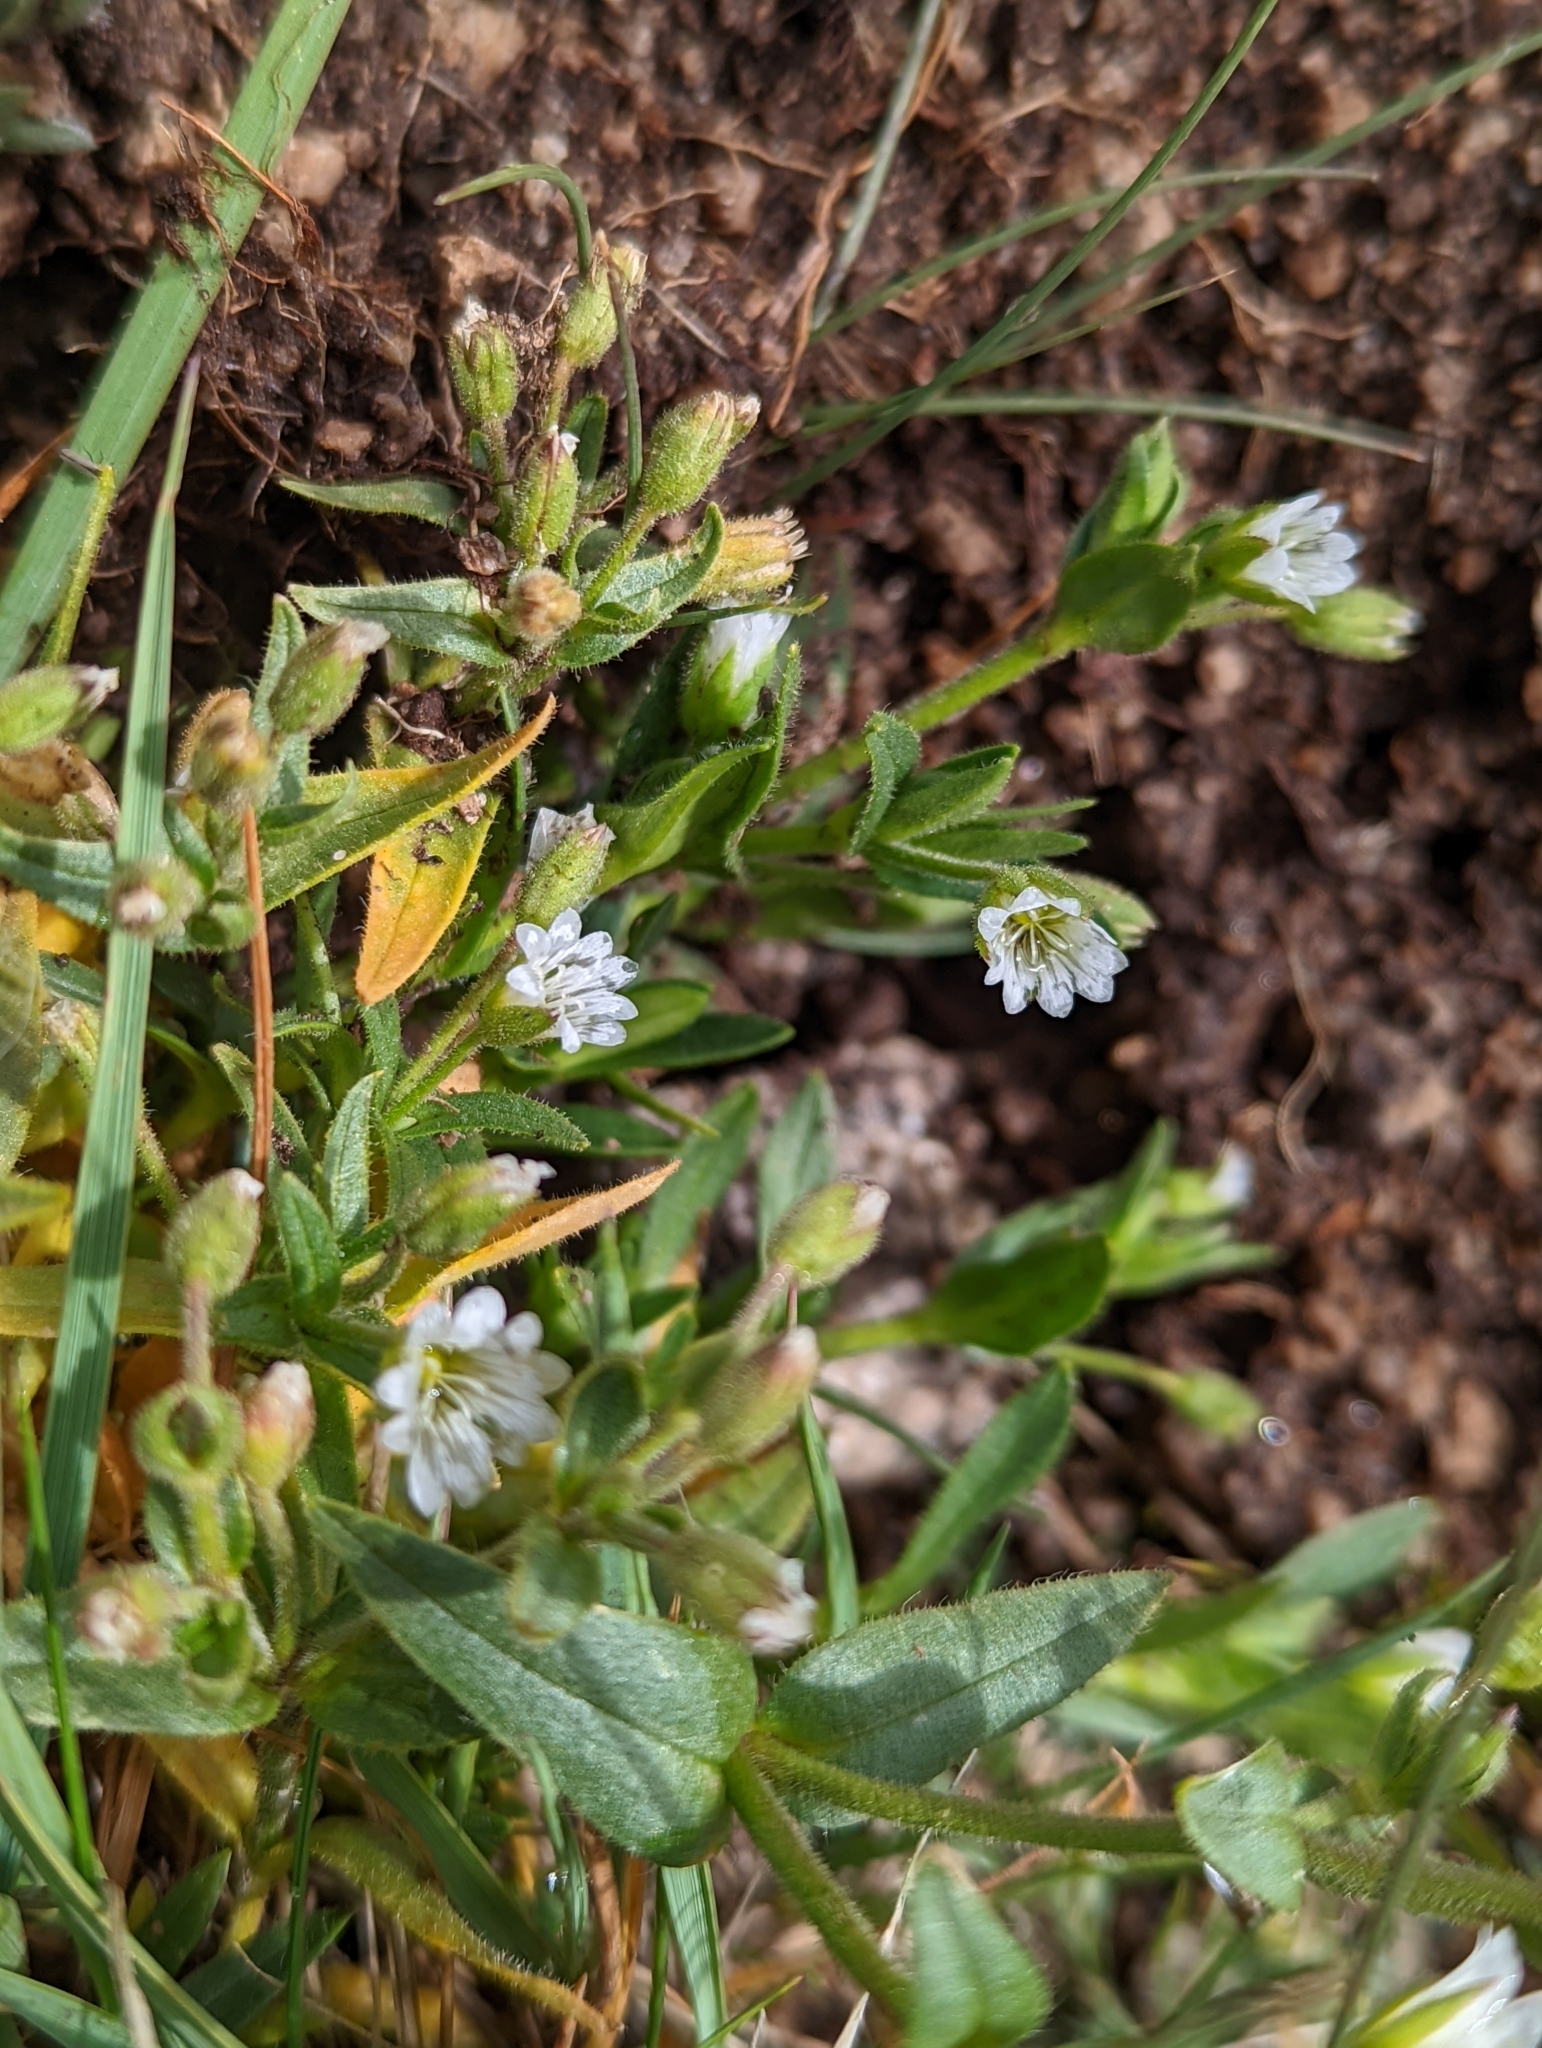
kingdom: Plantae
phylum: Tracheophyta
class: Magnoliopsida
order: Caryophyllales
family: Caryophyllaceae
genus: Cerastium
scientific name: Cerastium beeringianum
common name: Bering mouse-ear chickweed
